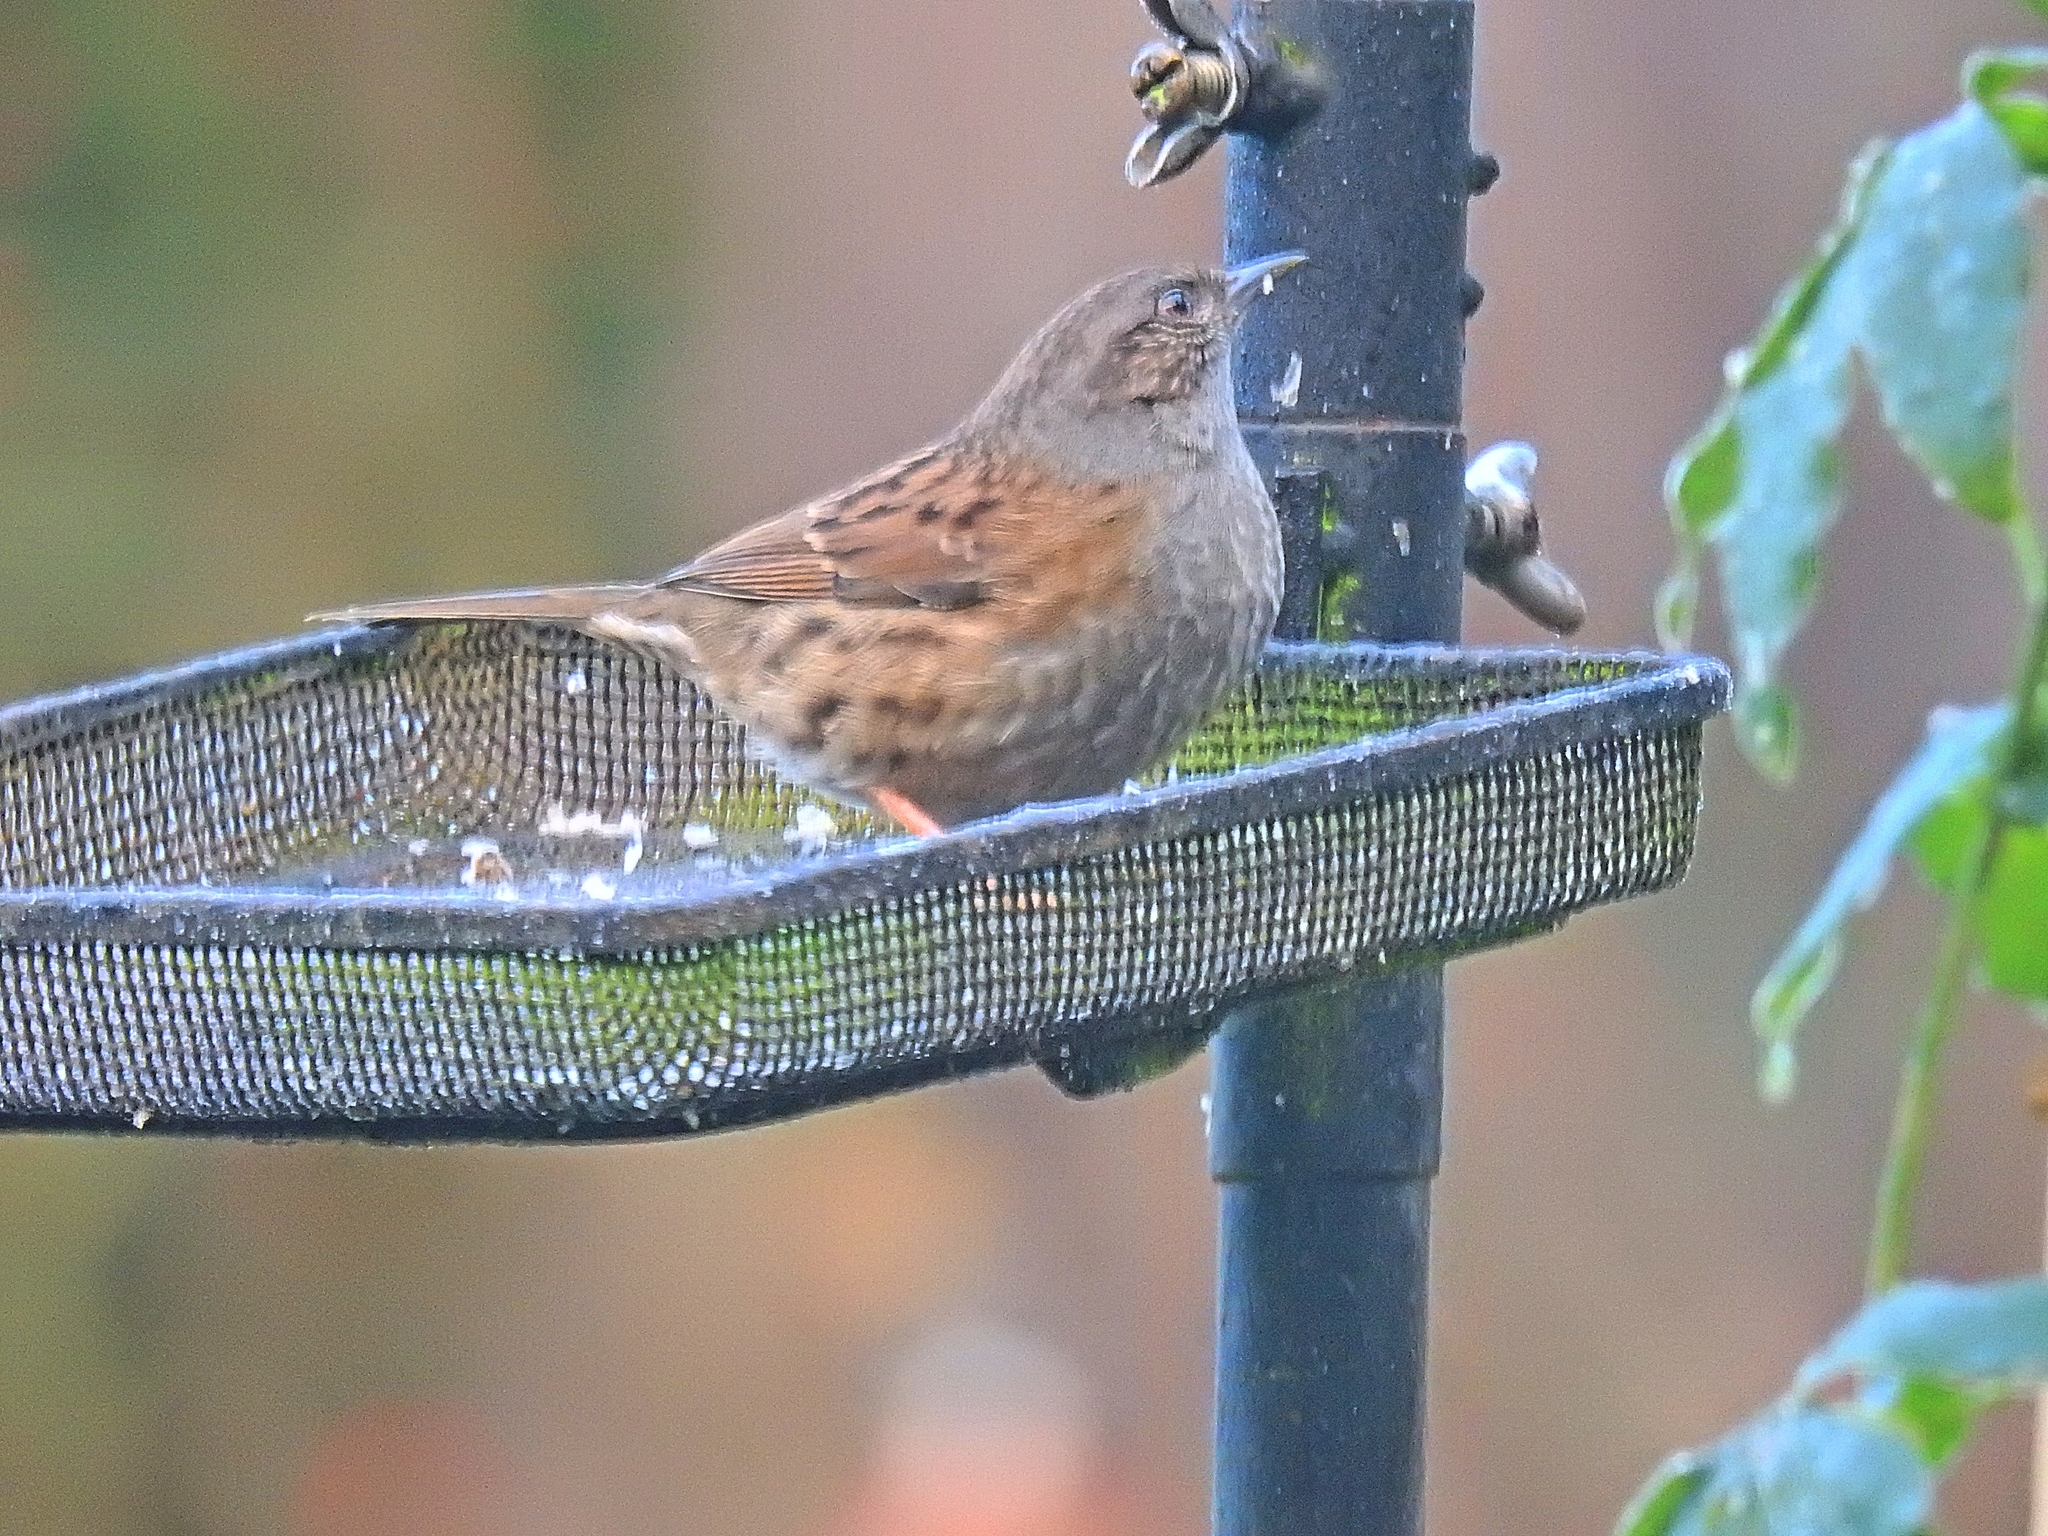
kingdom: Animalia
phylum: Chordata
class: Aves
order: Passeriformes
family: Prunellidae
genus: Prunella
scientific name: Prunella modularis
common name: Dunnock
